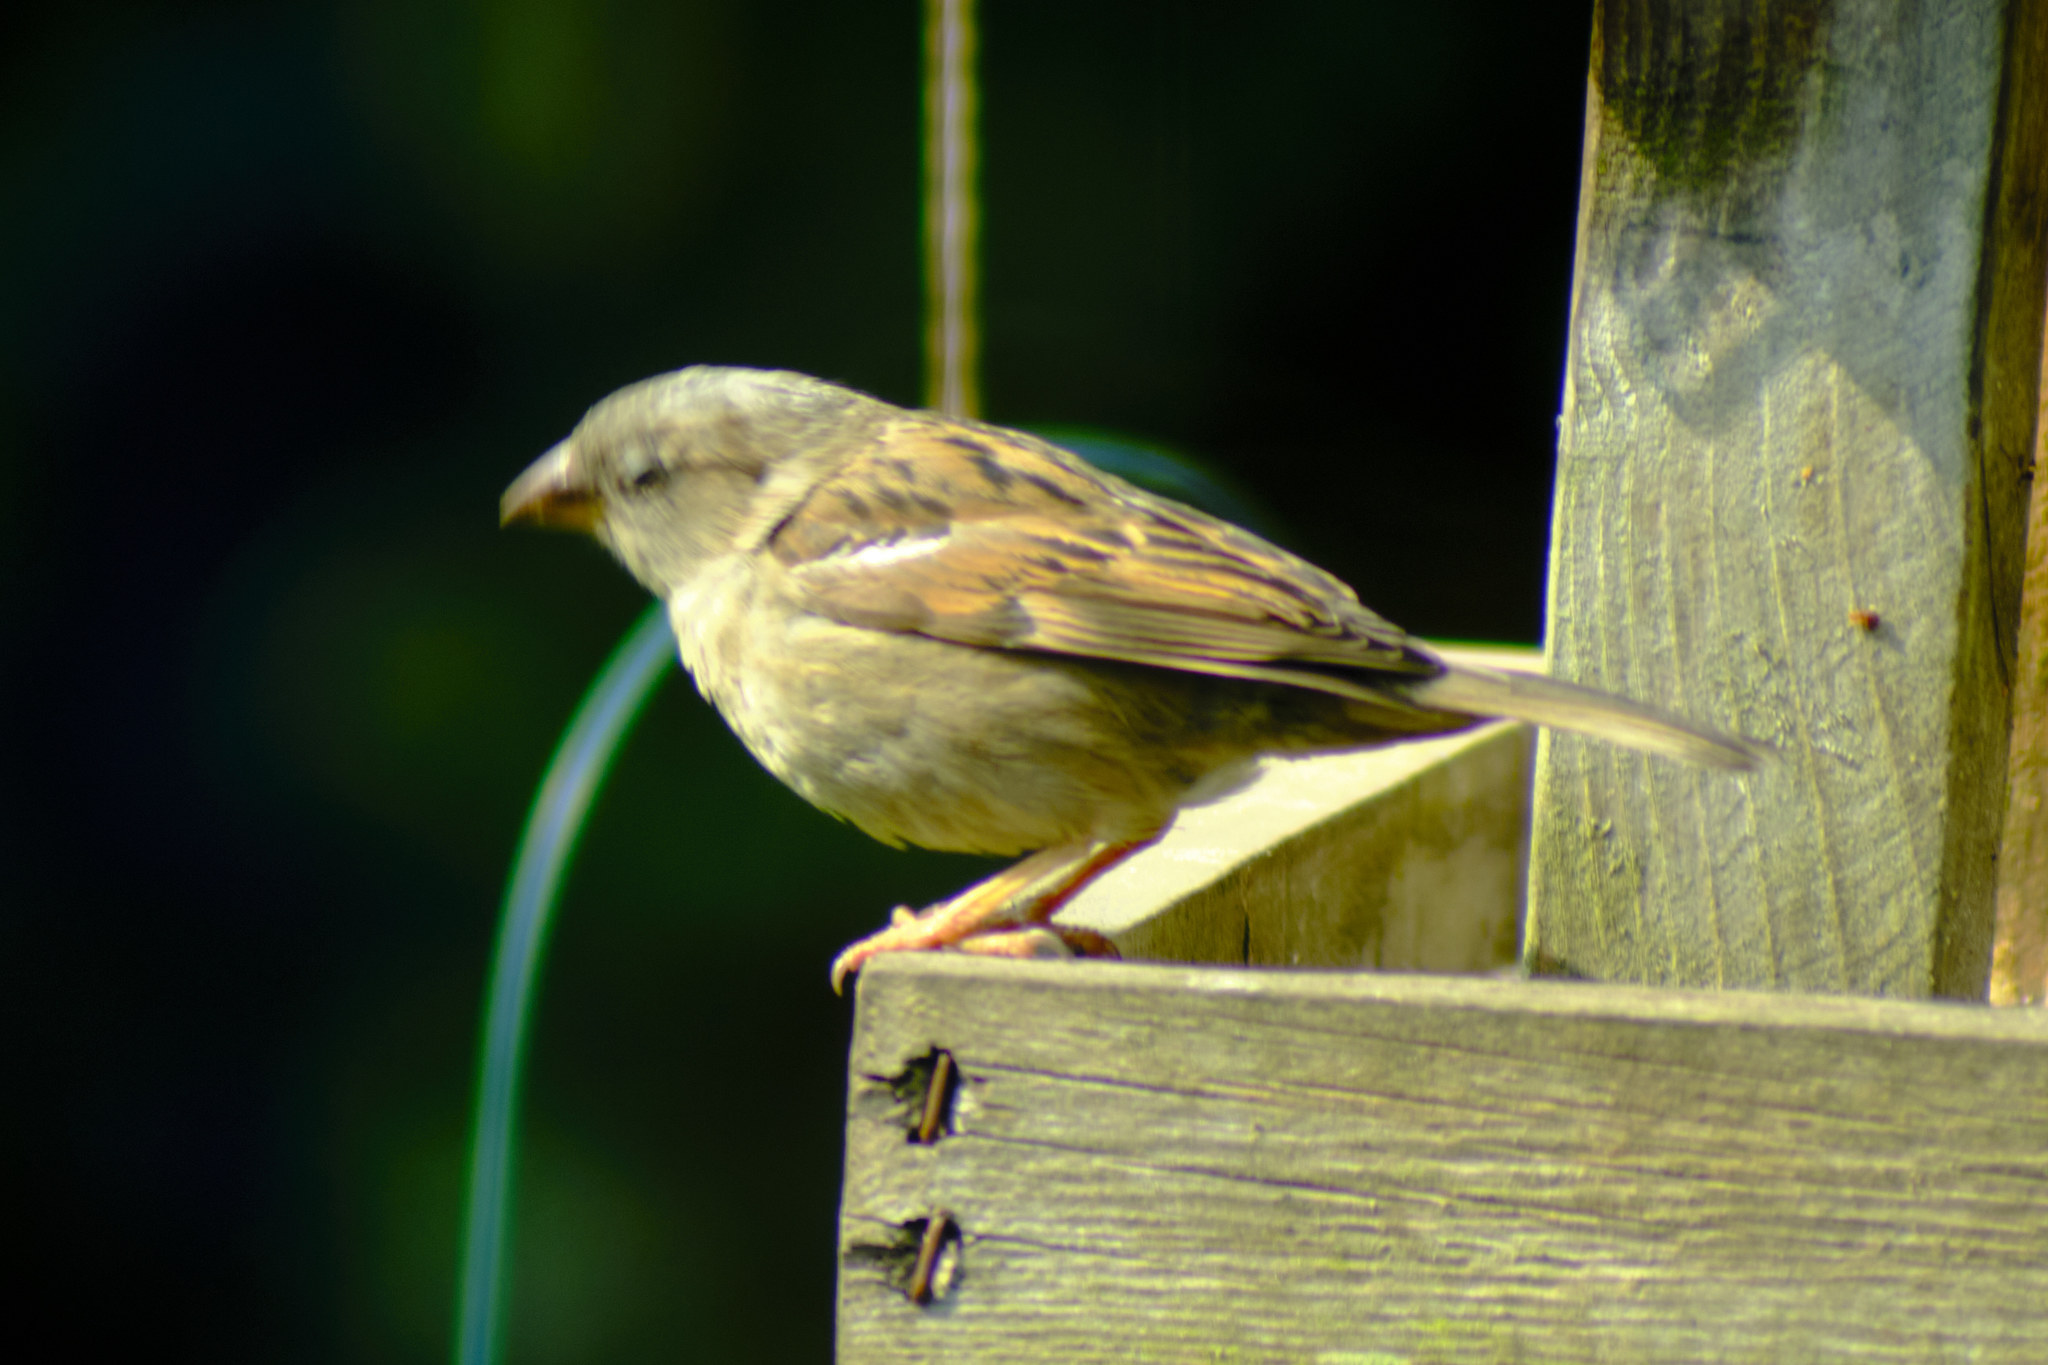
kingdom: Animalia
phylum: Chordata
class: Aves
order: Passeriformes
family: Passeridae
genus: Passer
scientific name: Passer domesticus
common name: House sparrow
